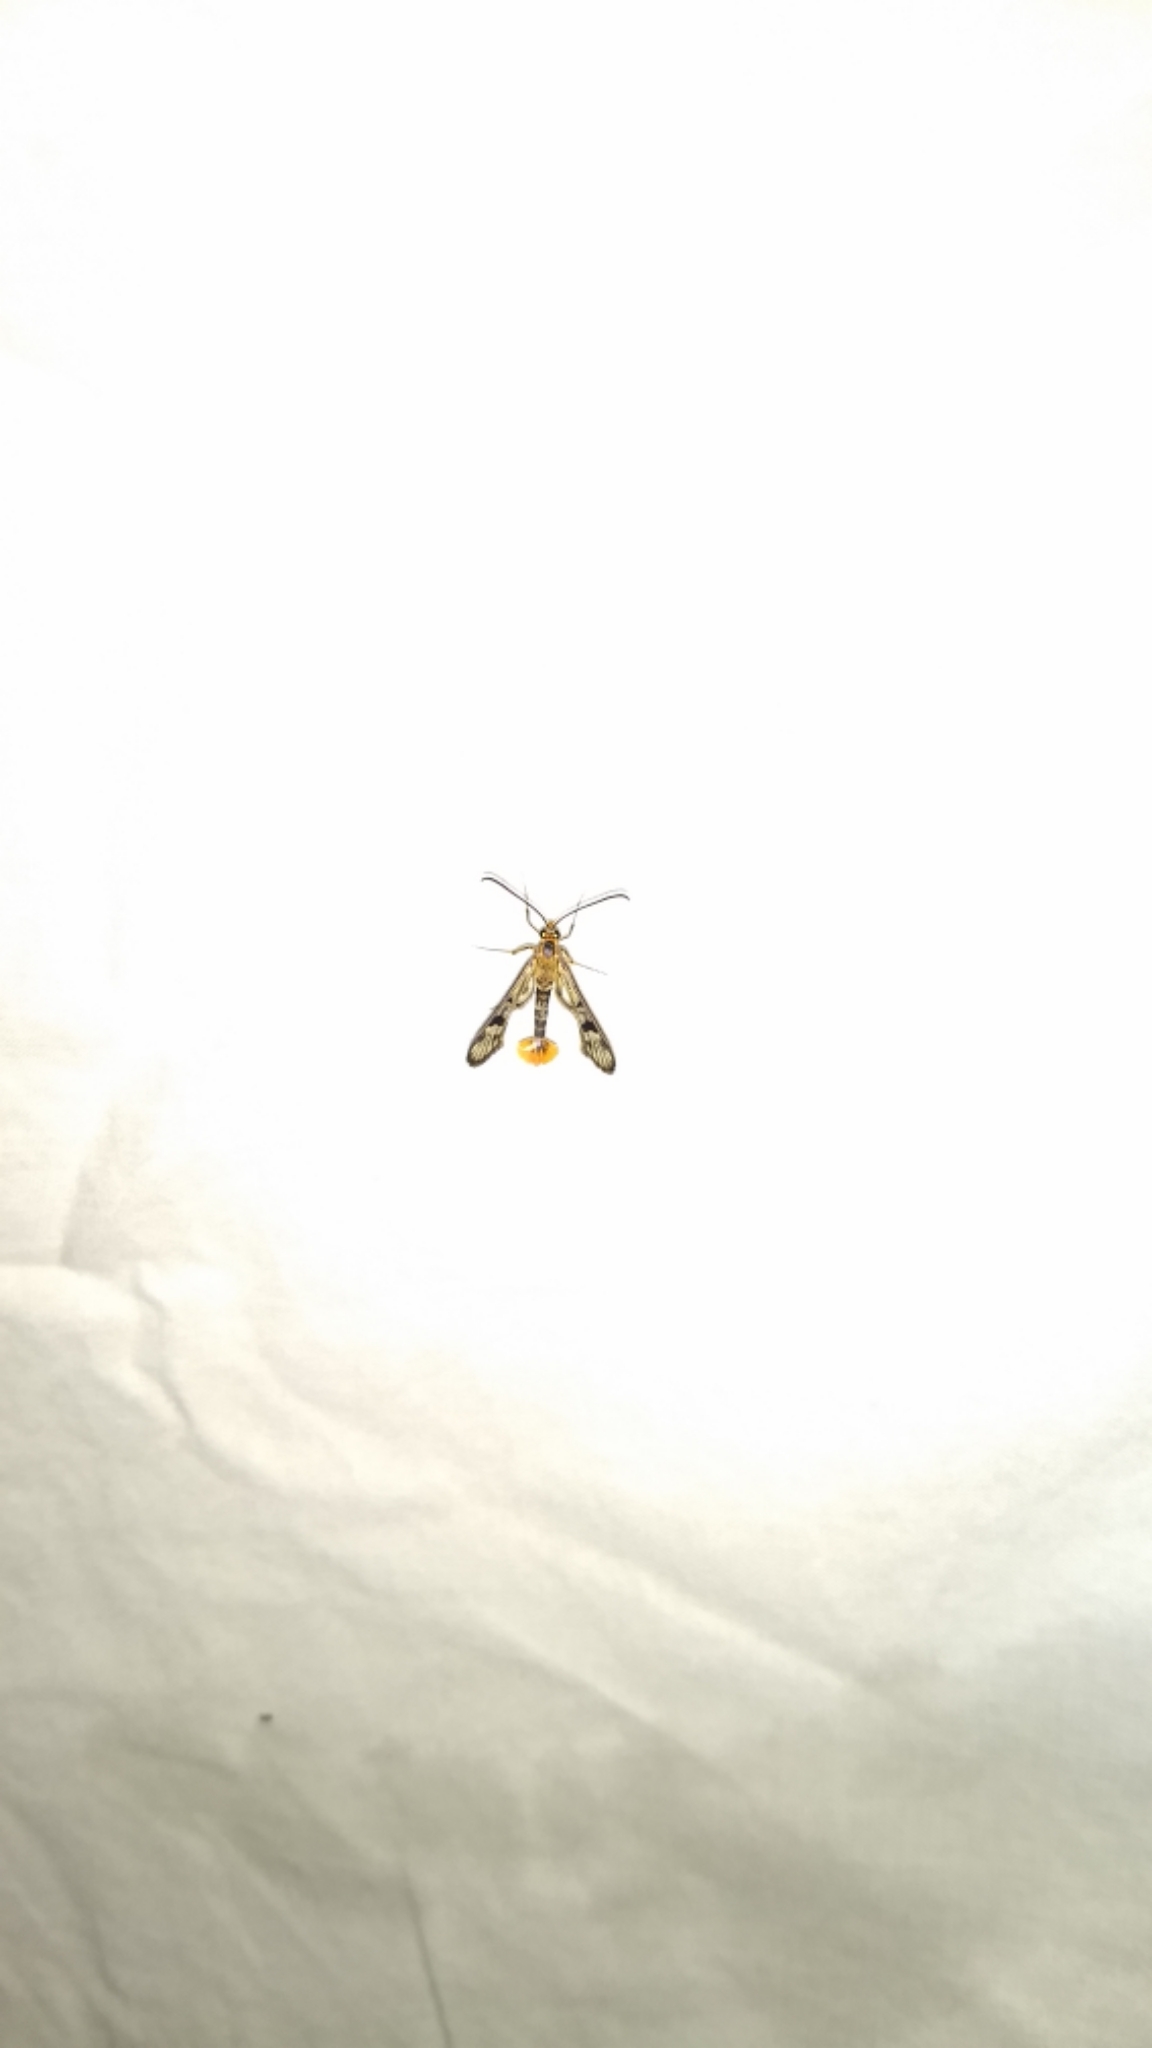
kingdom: Animalia
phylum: Arthropoda
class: Insecta
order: Lepidoptera
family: Sesiidae
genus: Synanthedon
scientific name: Synanthedon acerni
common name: Maple callus borer moth
